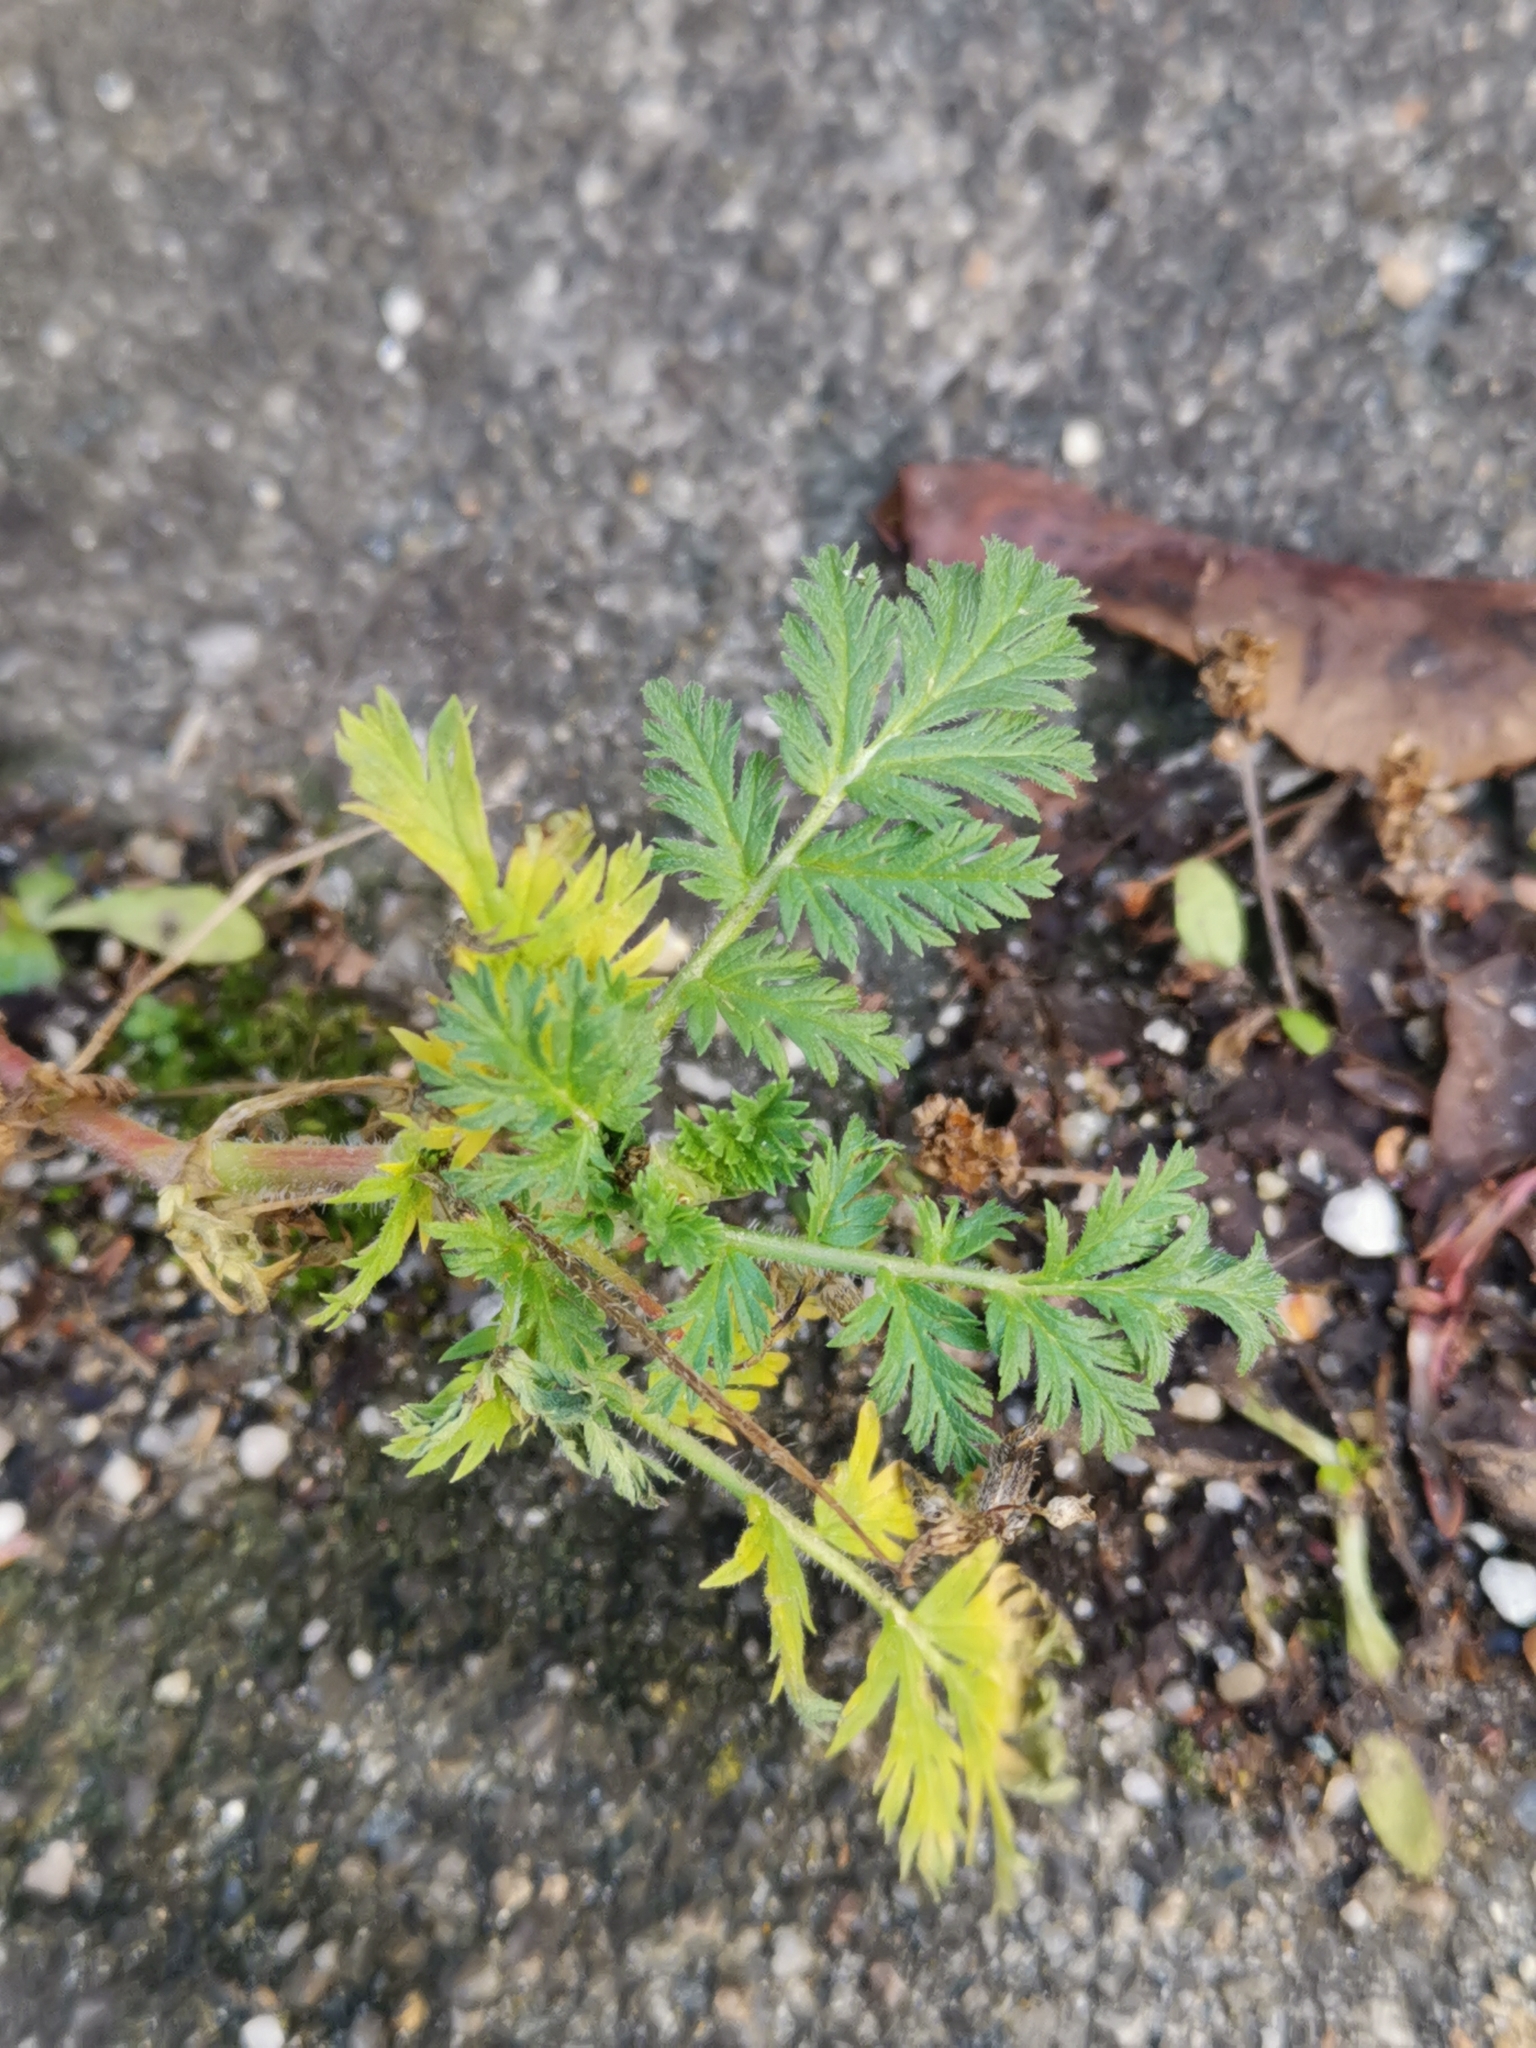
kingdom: Plantae
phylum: Tracheophyta
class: Magnoliopsida
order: Geraniales
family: Geraniaceae
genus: Erodium
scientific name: Erodium cicutarium
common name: Common stork's-bill
